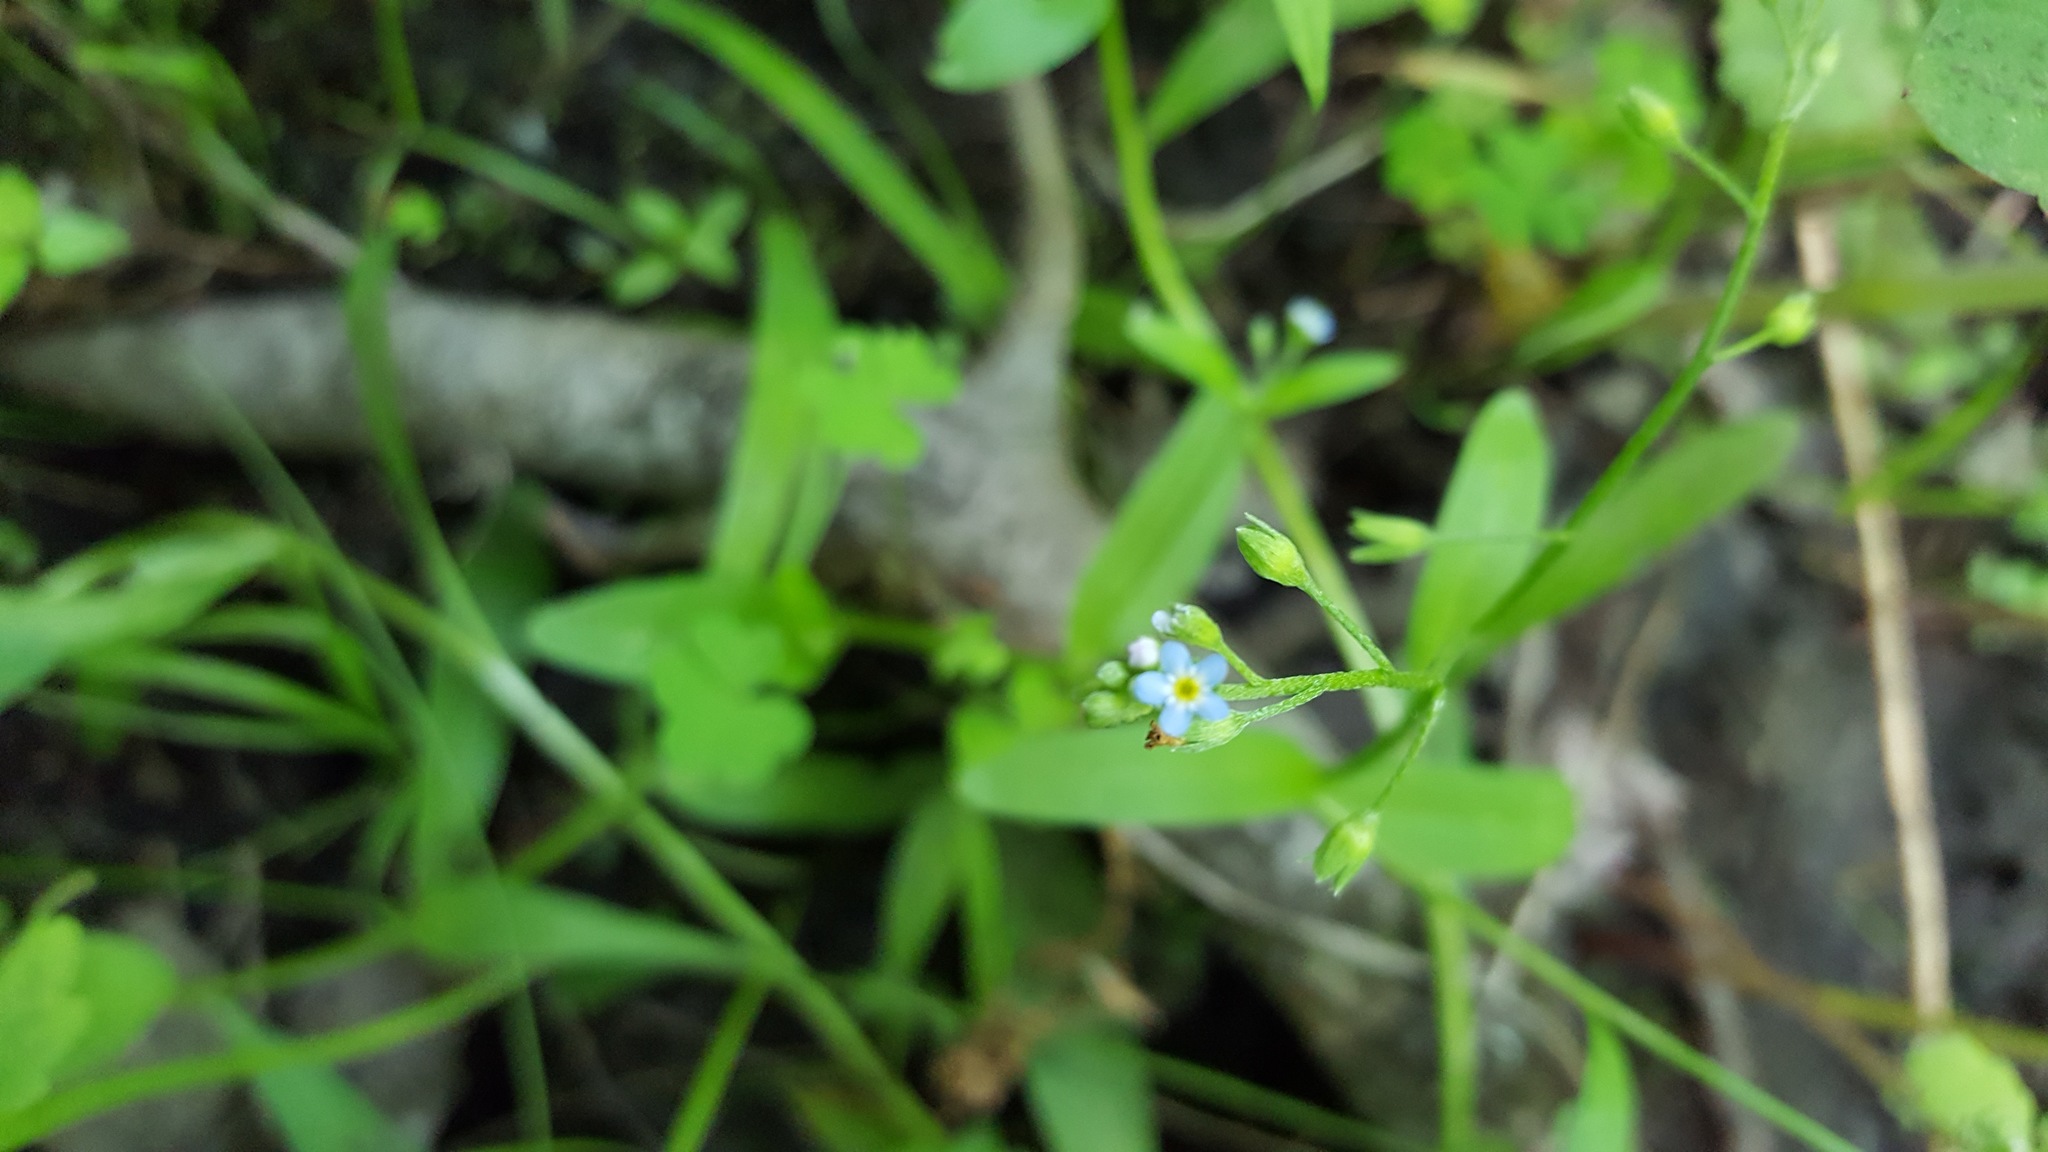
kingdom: Plantae
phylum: Tracheophyta
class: Magnoliopsida
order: Boraginales
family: Boraginaceae
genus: Myosotis
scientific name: Myosotis laxa
